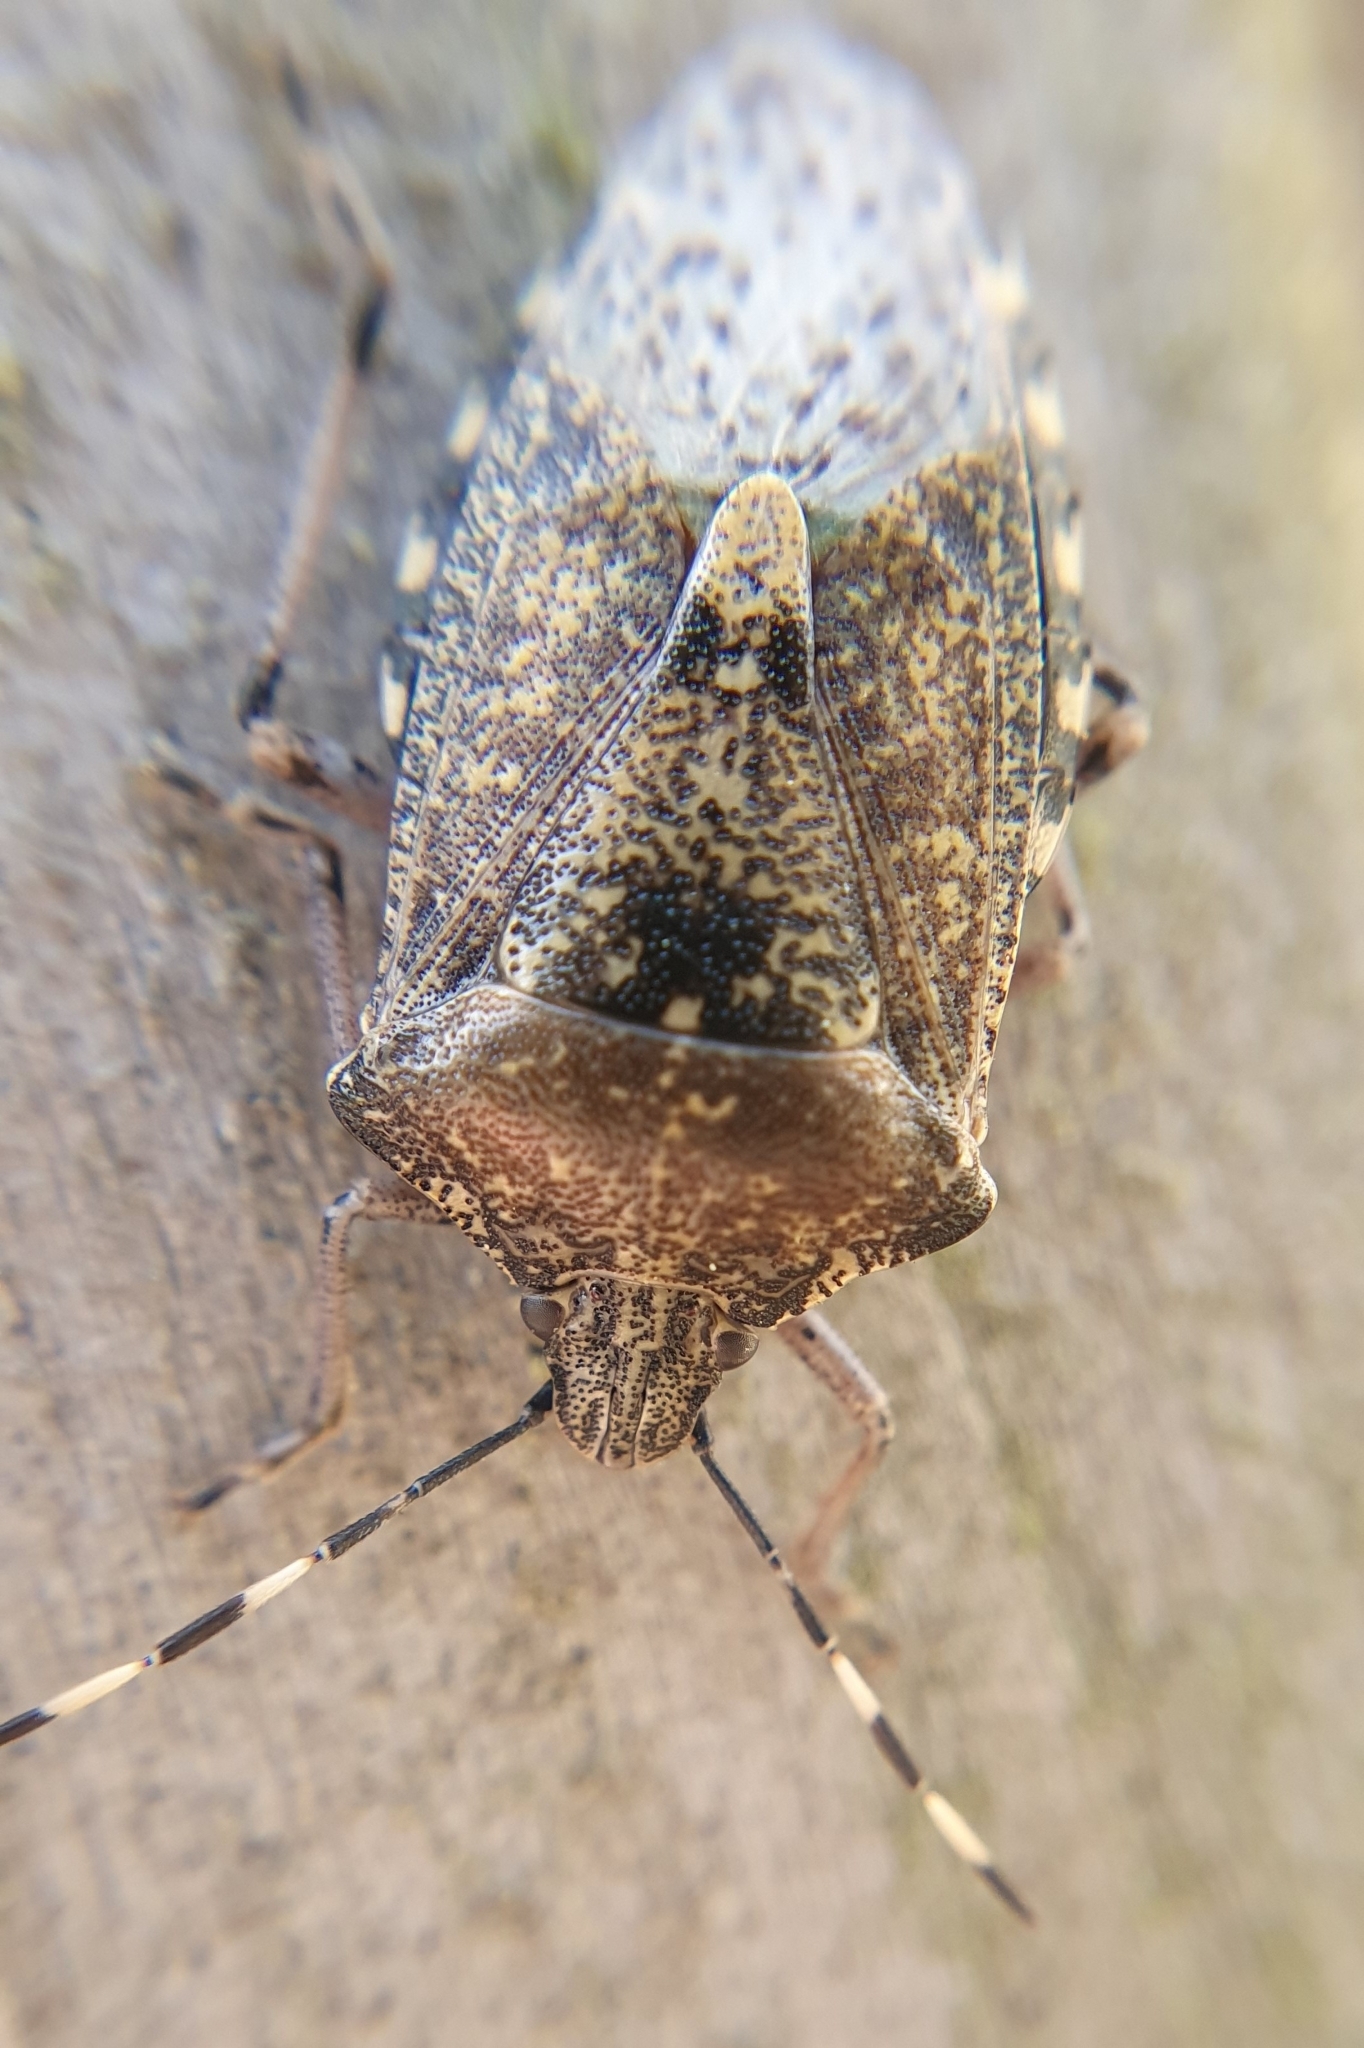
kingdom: Animalia
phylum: Arthropoda
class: Insecta
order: Hemiptera
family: Pentatomidae
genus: Rhaphigaster
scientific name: Rhaphigaster nebulosa
